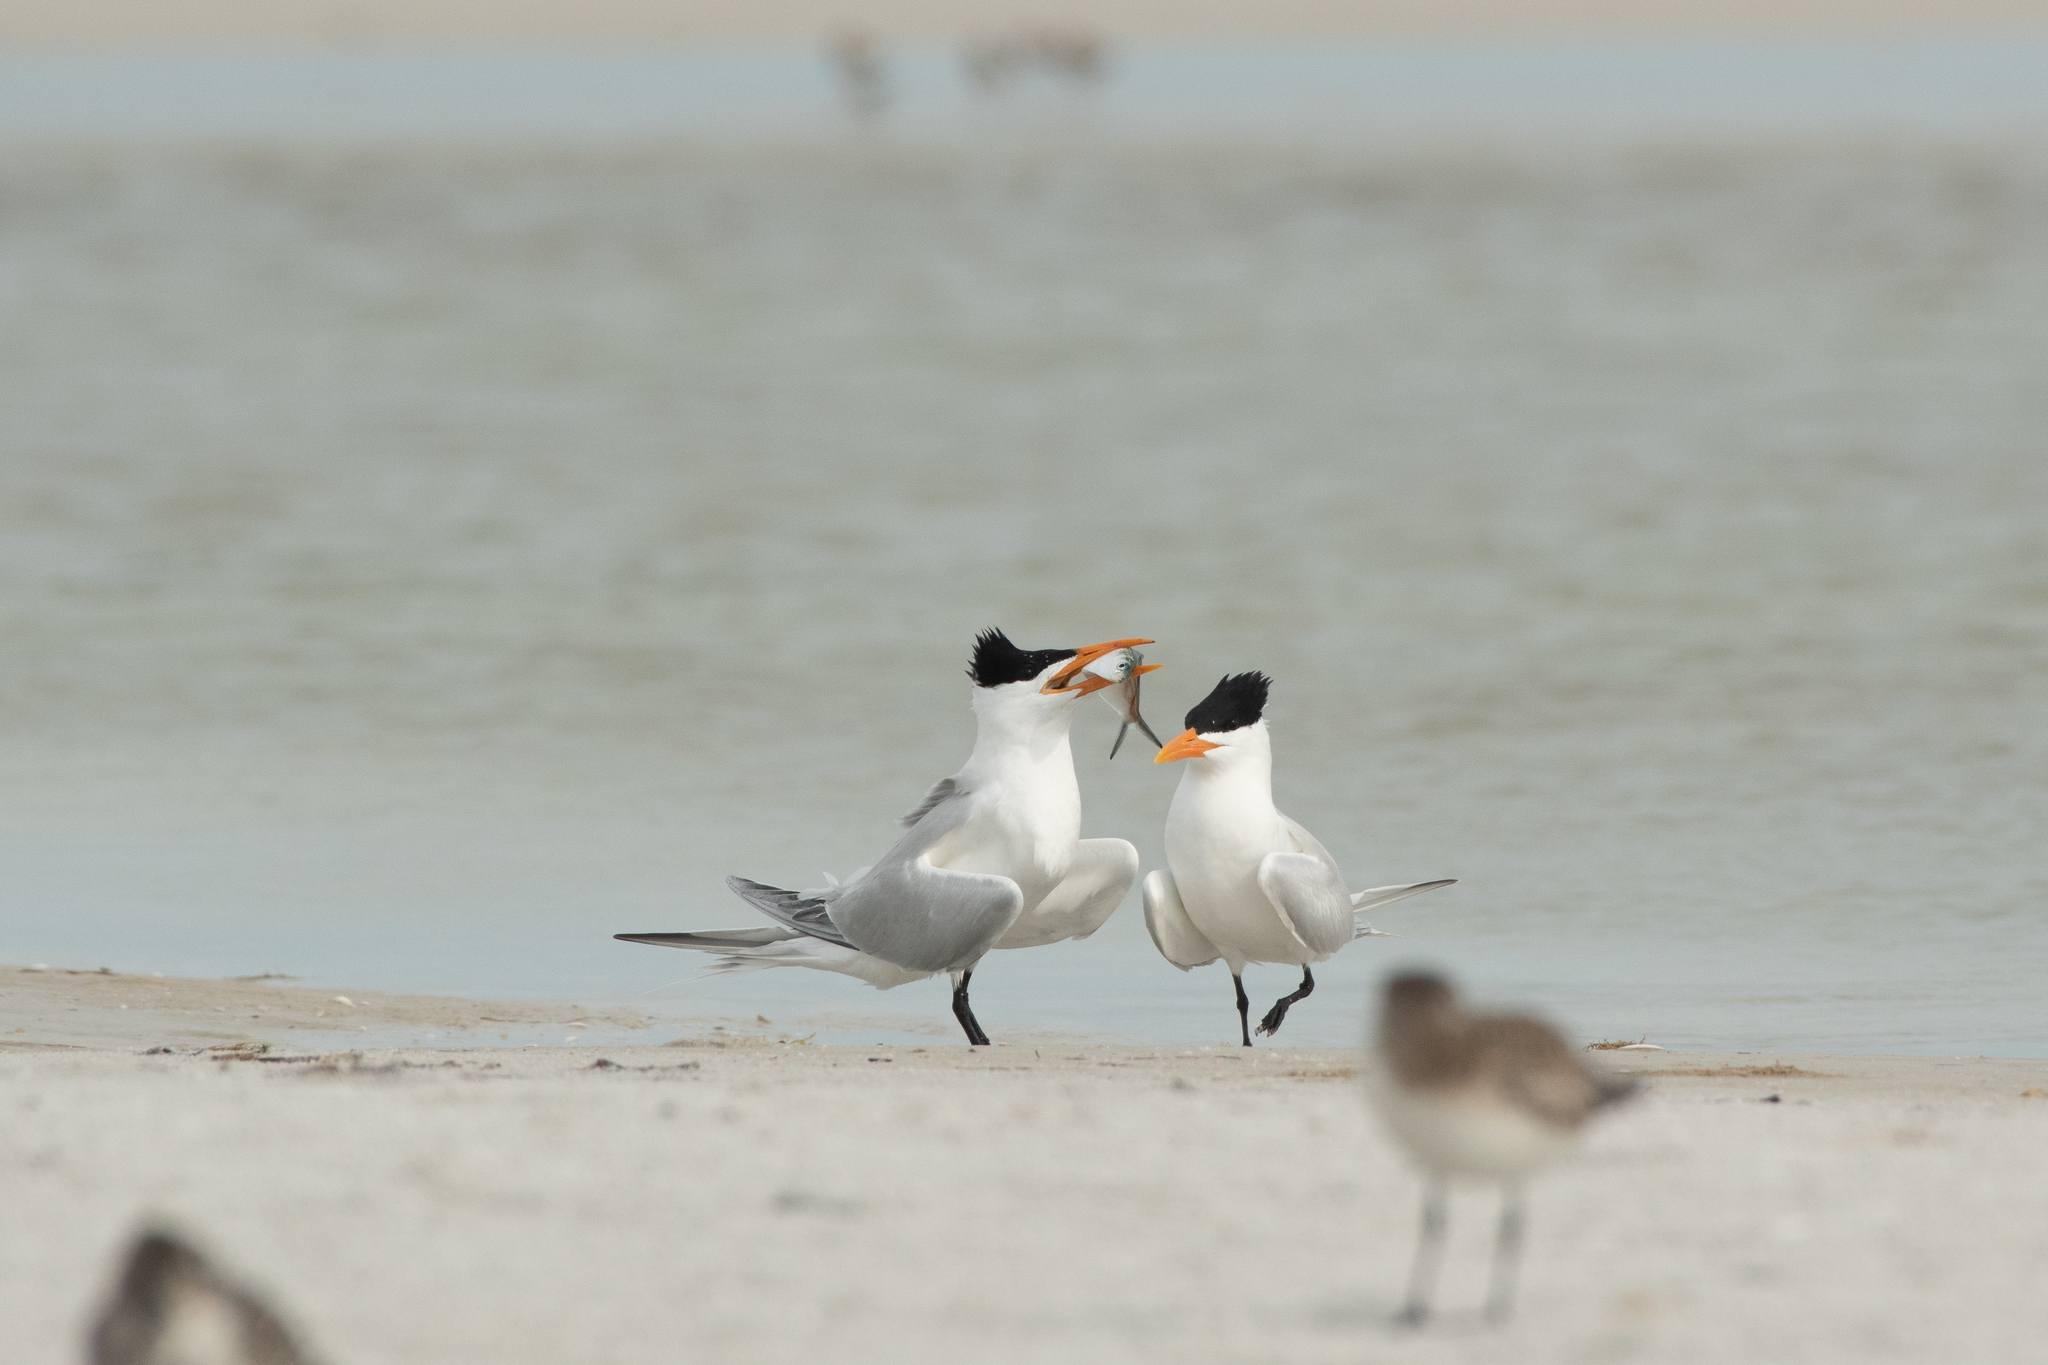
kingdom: Animalia
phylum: Chordata
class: Aves
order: Charadriiformes
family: Laridae
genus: Thalasseus
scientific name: Thalasseus maximus
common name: Royal tern
